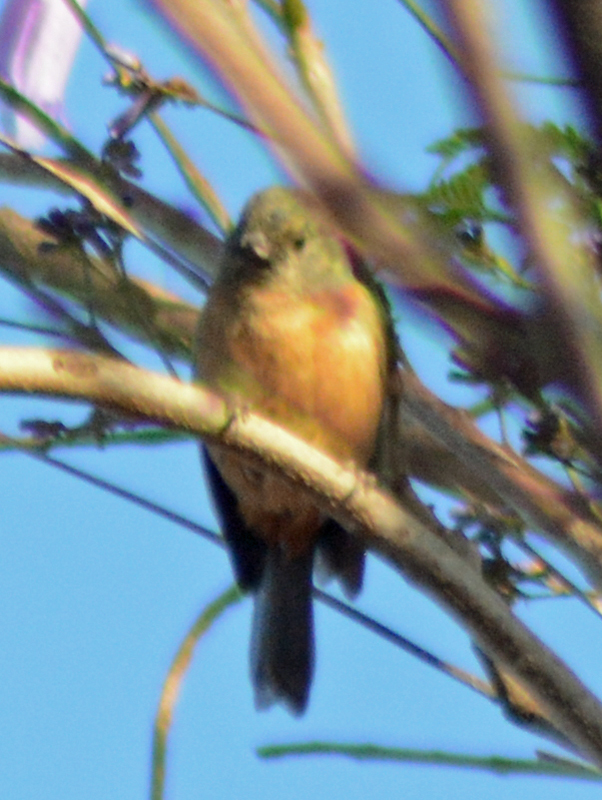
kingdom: Animalia
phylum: Chordata
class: Aves
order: Passeriformes
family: Thraupidae
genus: Diglossa
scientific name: Diglossa baritula
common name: Cinnamon-bellied flowerpiercer
